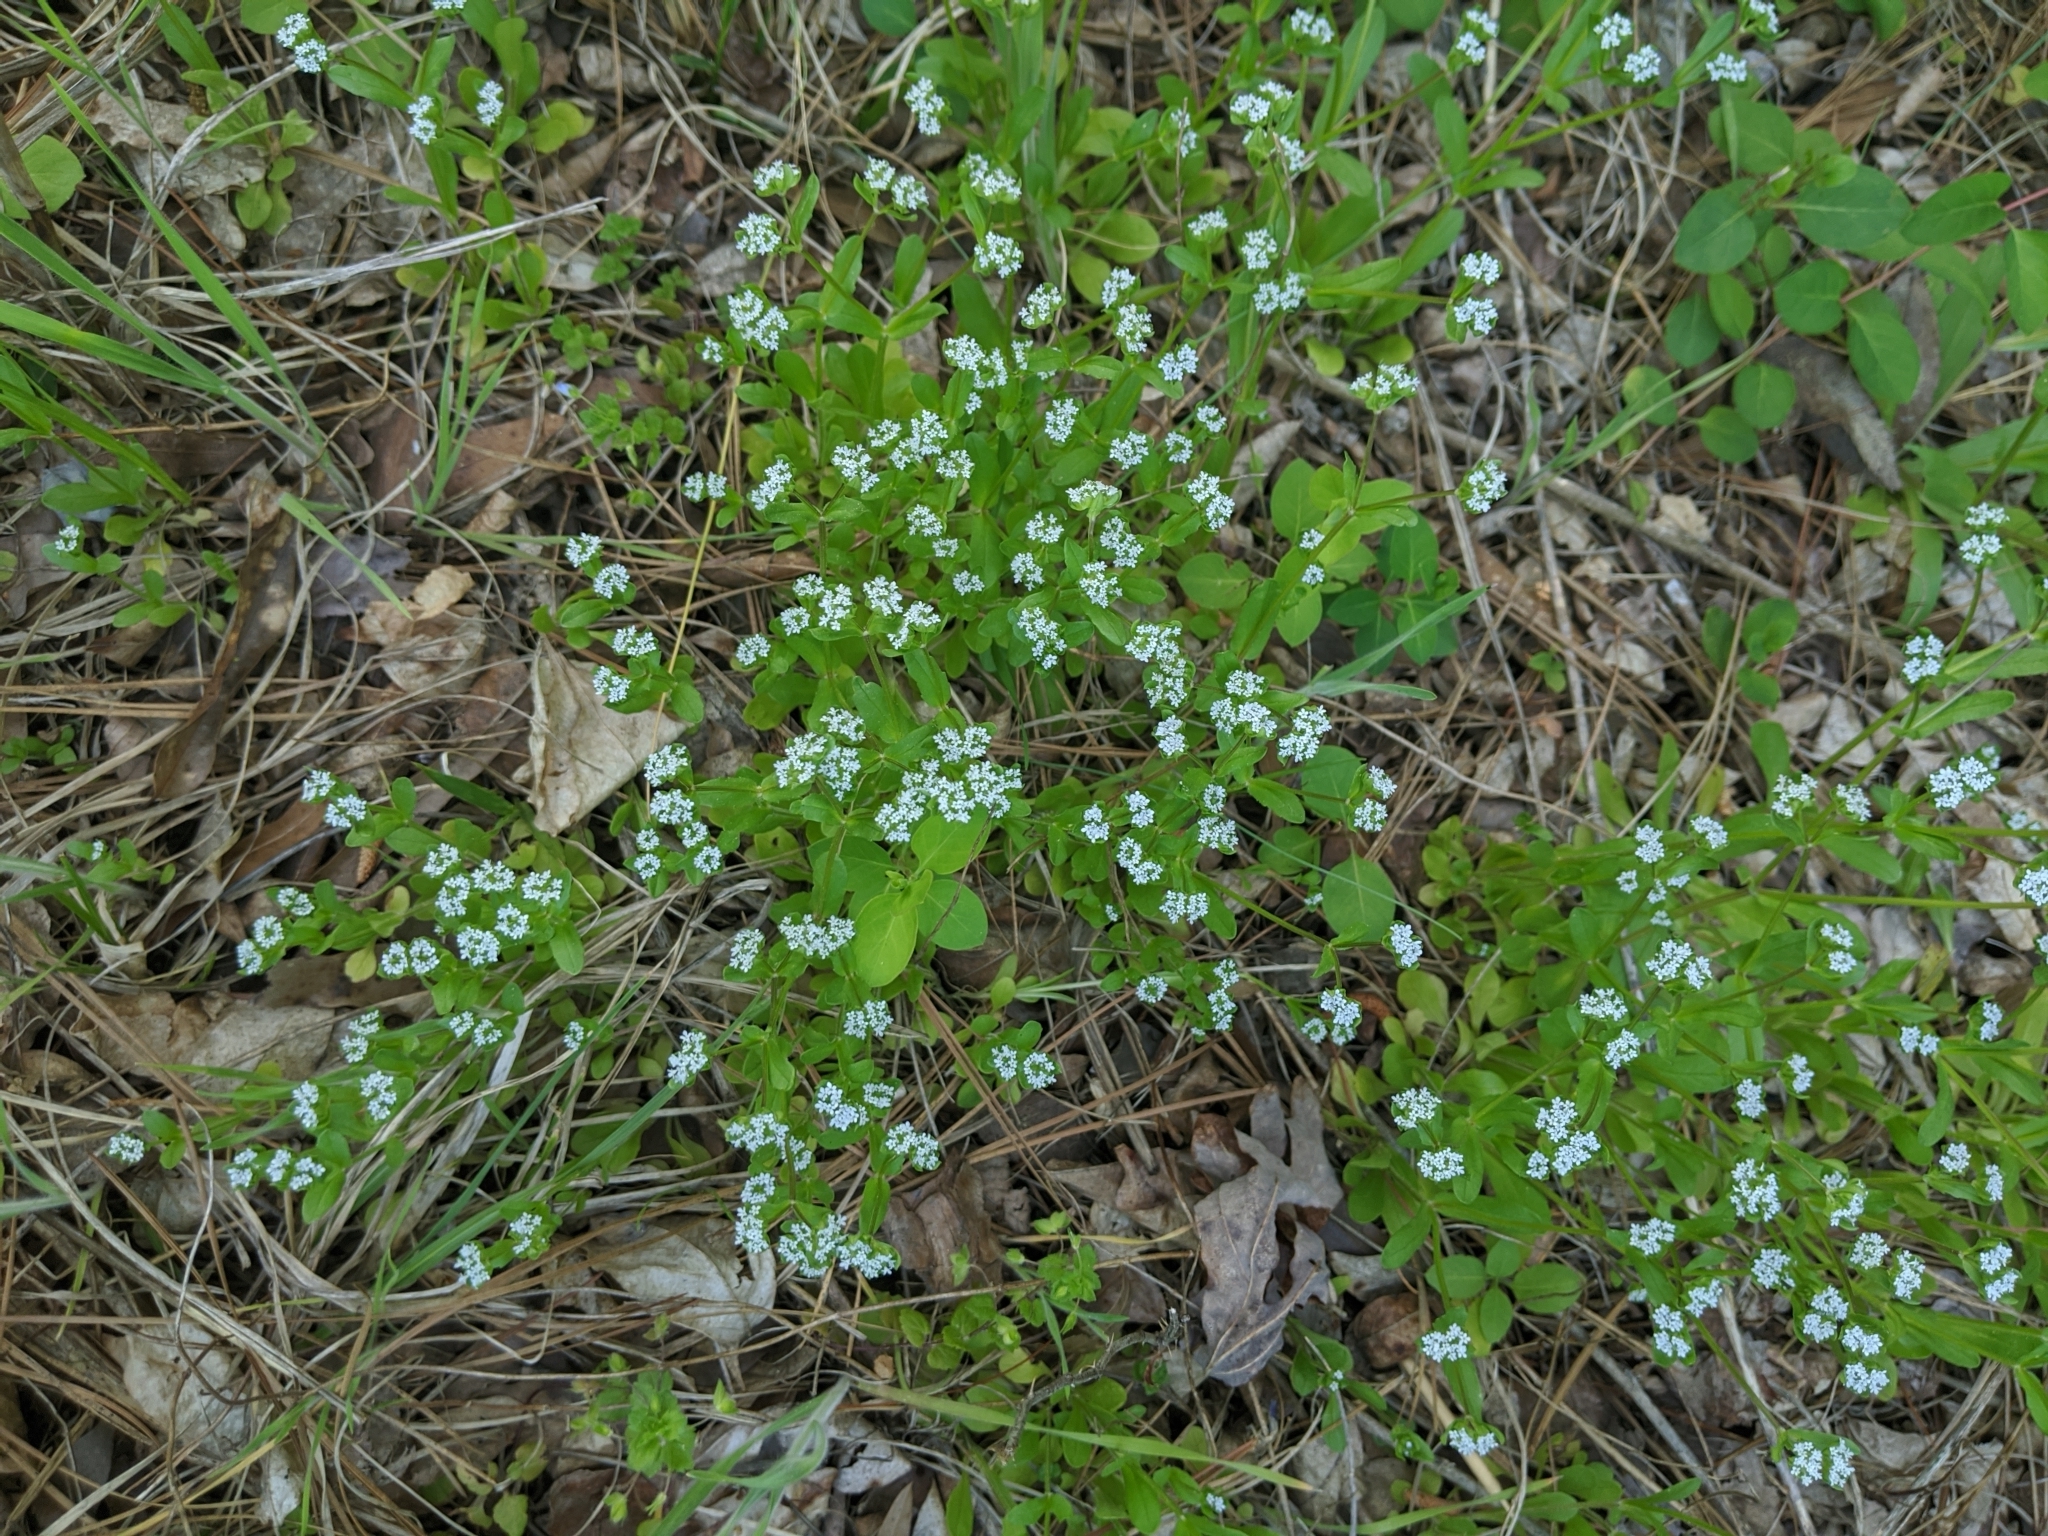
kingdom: Plantae
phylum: Tracheophyta
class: Magnoliopsida
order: Dipsacales
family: Caprifoliaceae
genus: Valerianella
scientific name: Valerianella locusta
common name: Common cornsalad
